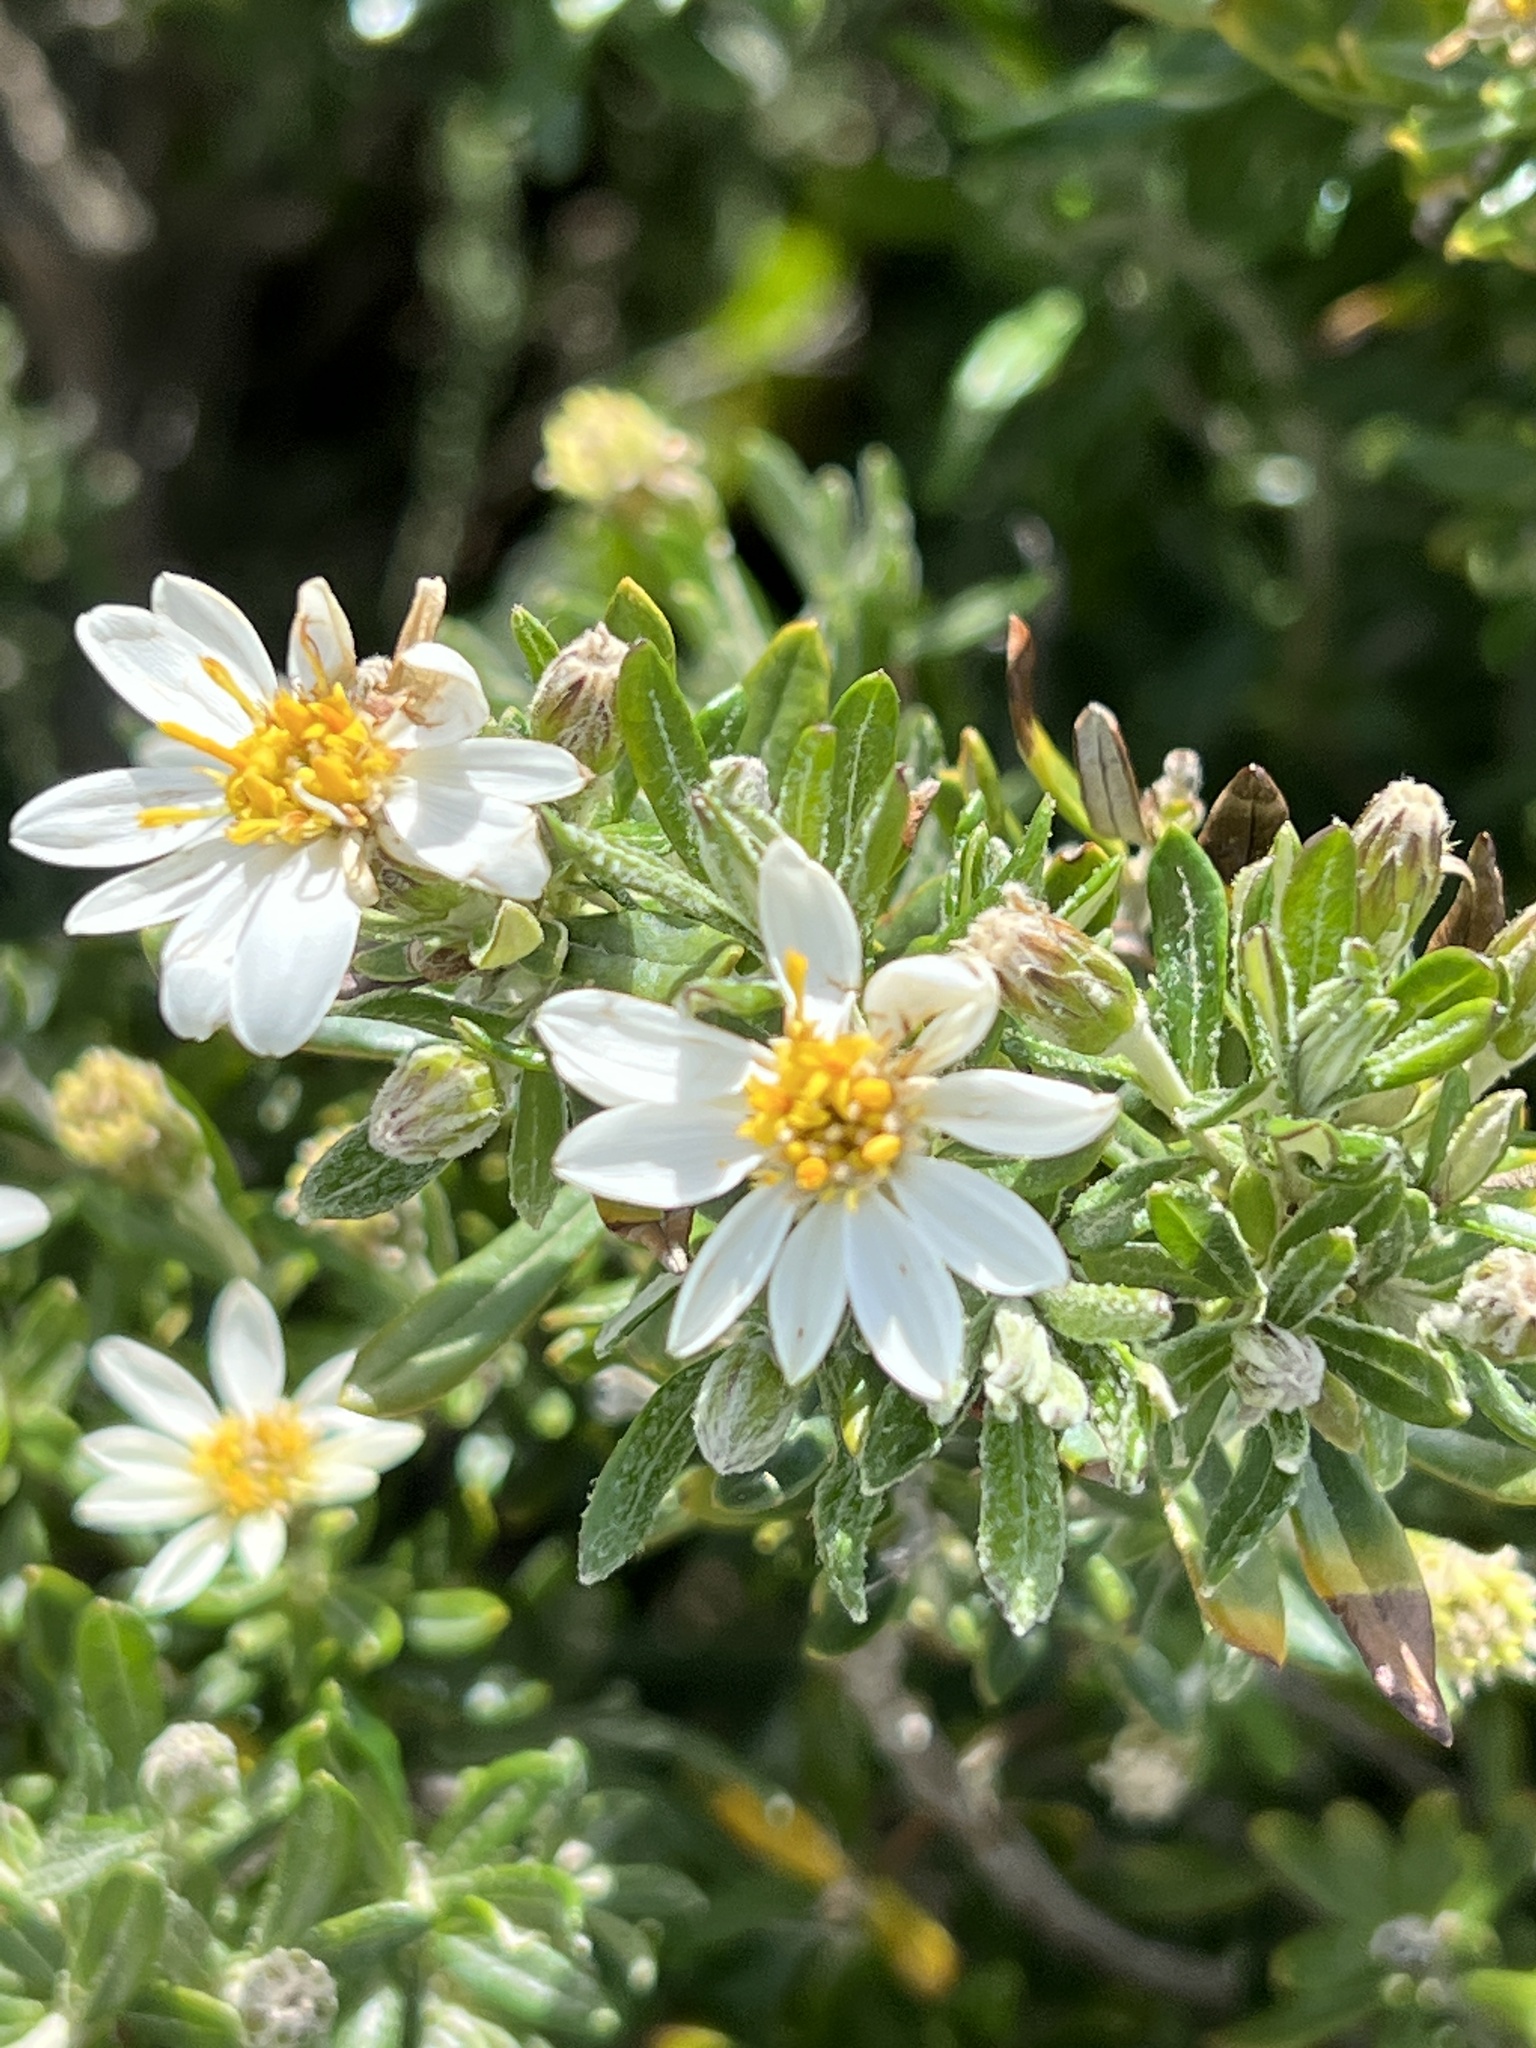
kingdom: Plantae
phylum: Tracheophyta
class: Magnoliopsida
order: Asterales
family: Asteraceae
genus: Chiliotrichum
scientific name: Chiliotrichum diffusum
